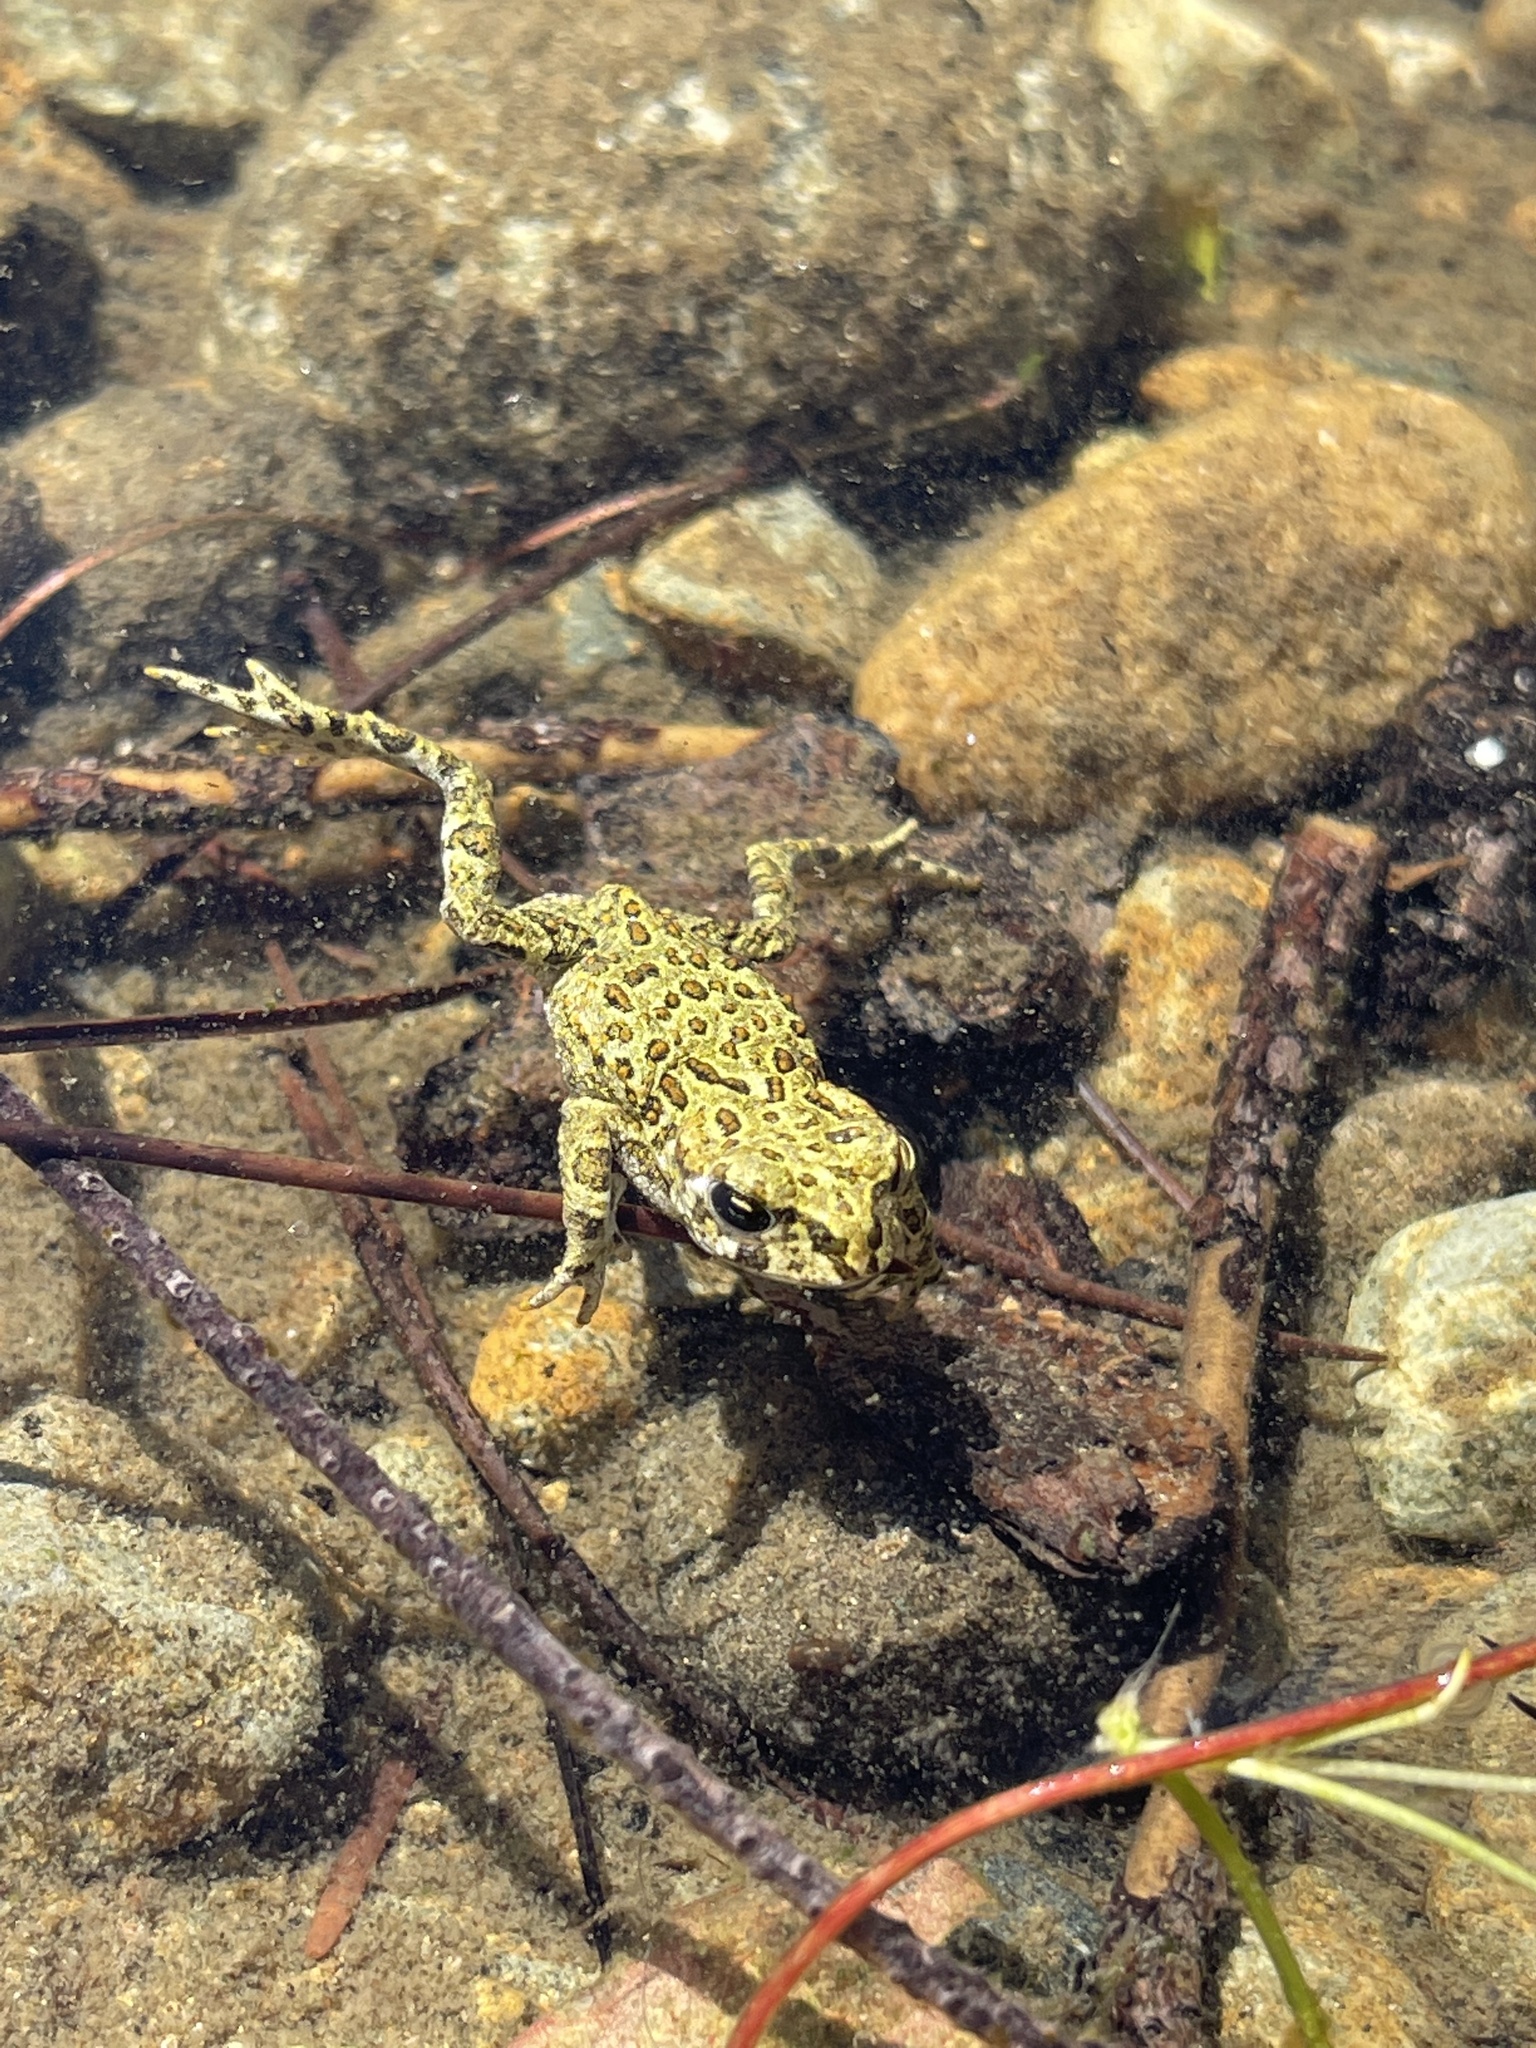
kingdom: Animalia
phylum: Chordata
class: Amphibia
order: Anura
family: Bufonidae
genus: Anaxyrus
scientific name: Anaxyrus boreas
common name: Western toad
